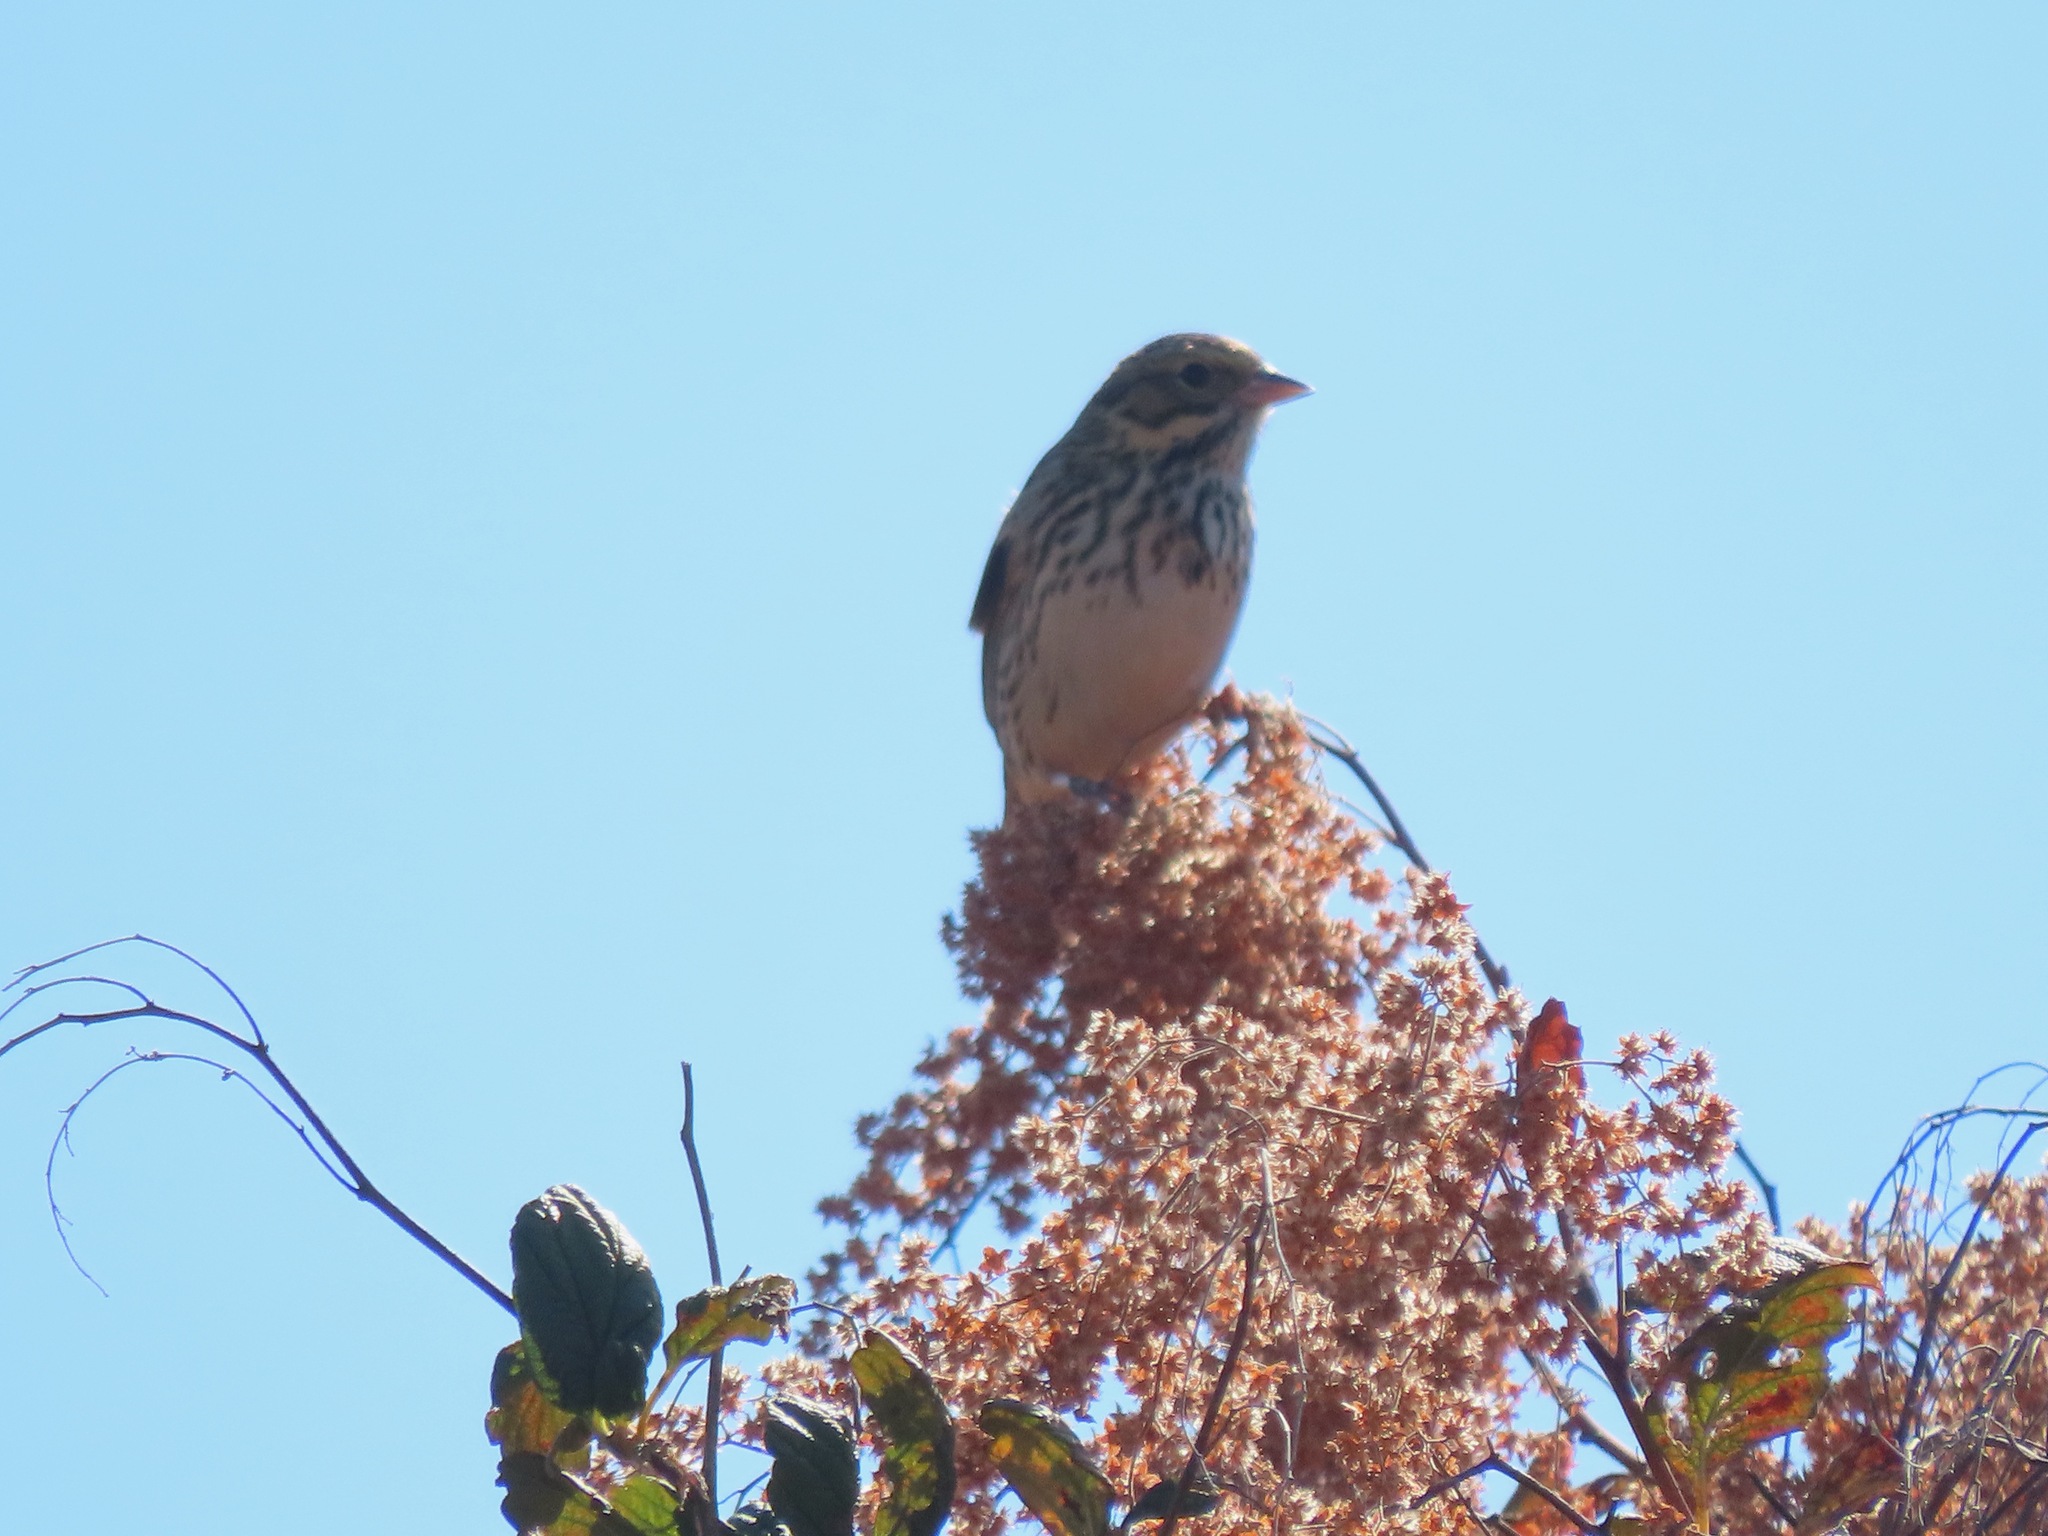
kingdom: Animalia
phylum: Chordata
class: Aves
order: Passeriformes
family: Passerellidae
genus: Passerculus
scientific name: Passerculus sandwichensis
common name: Savannah sparrow
